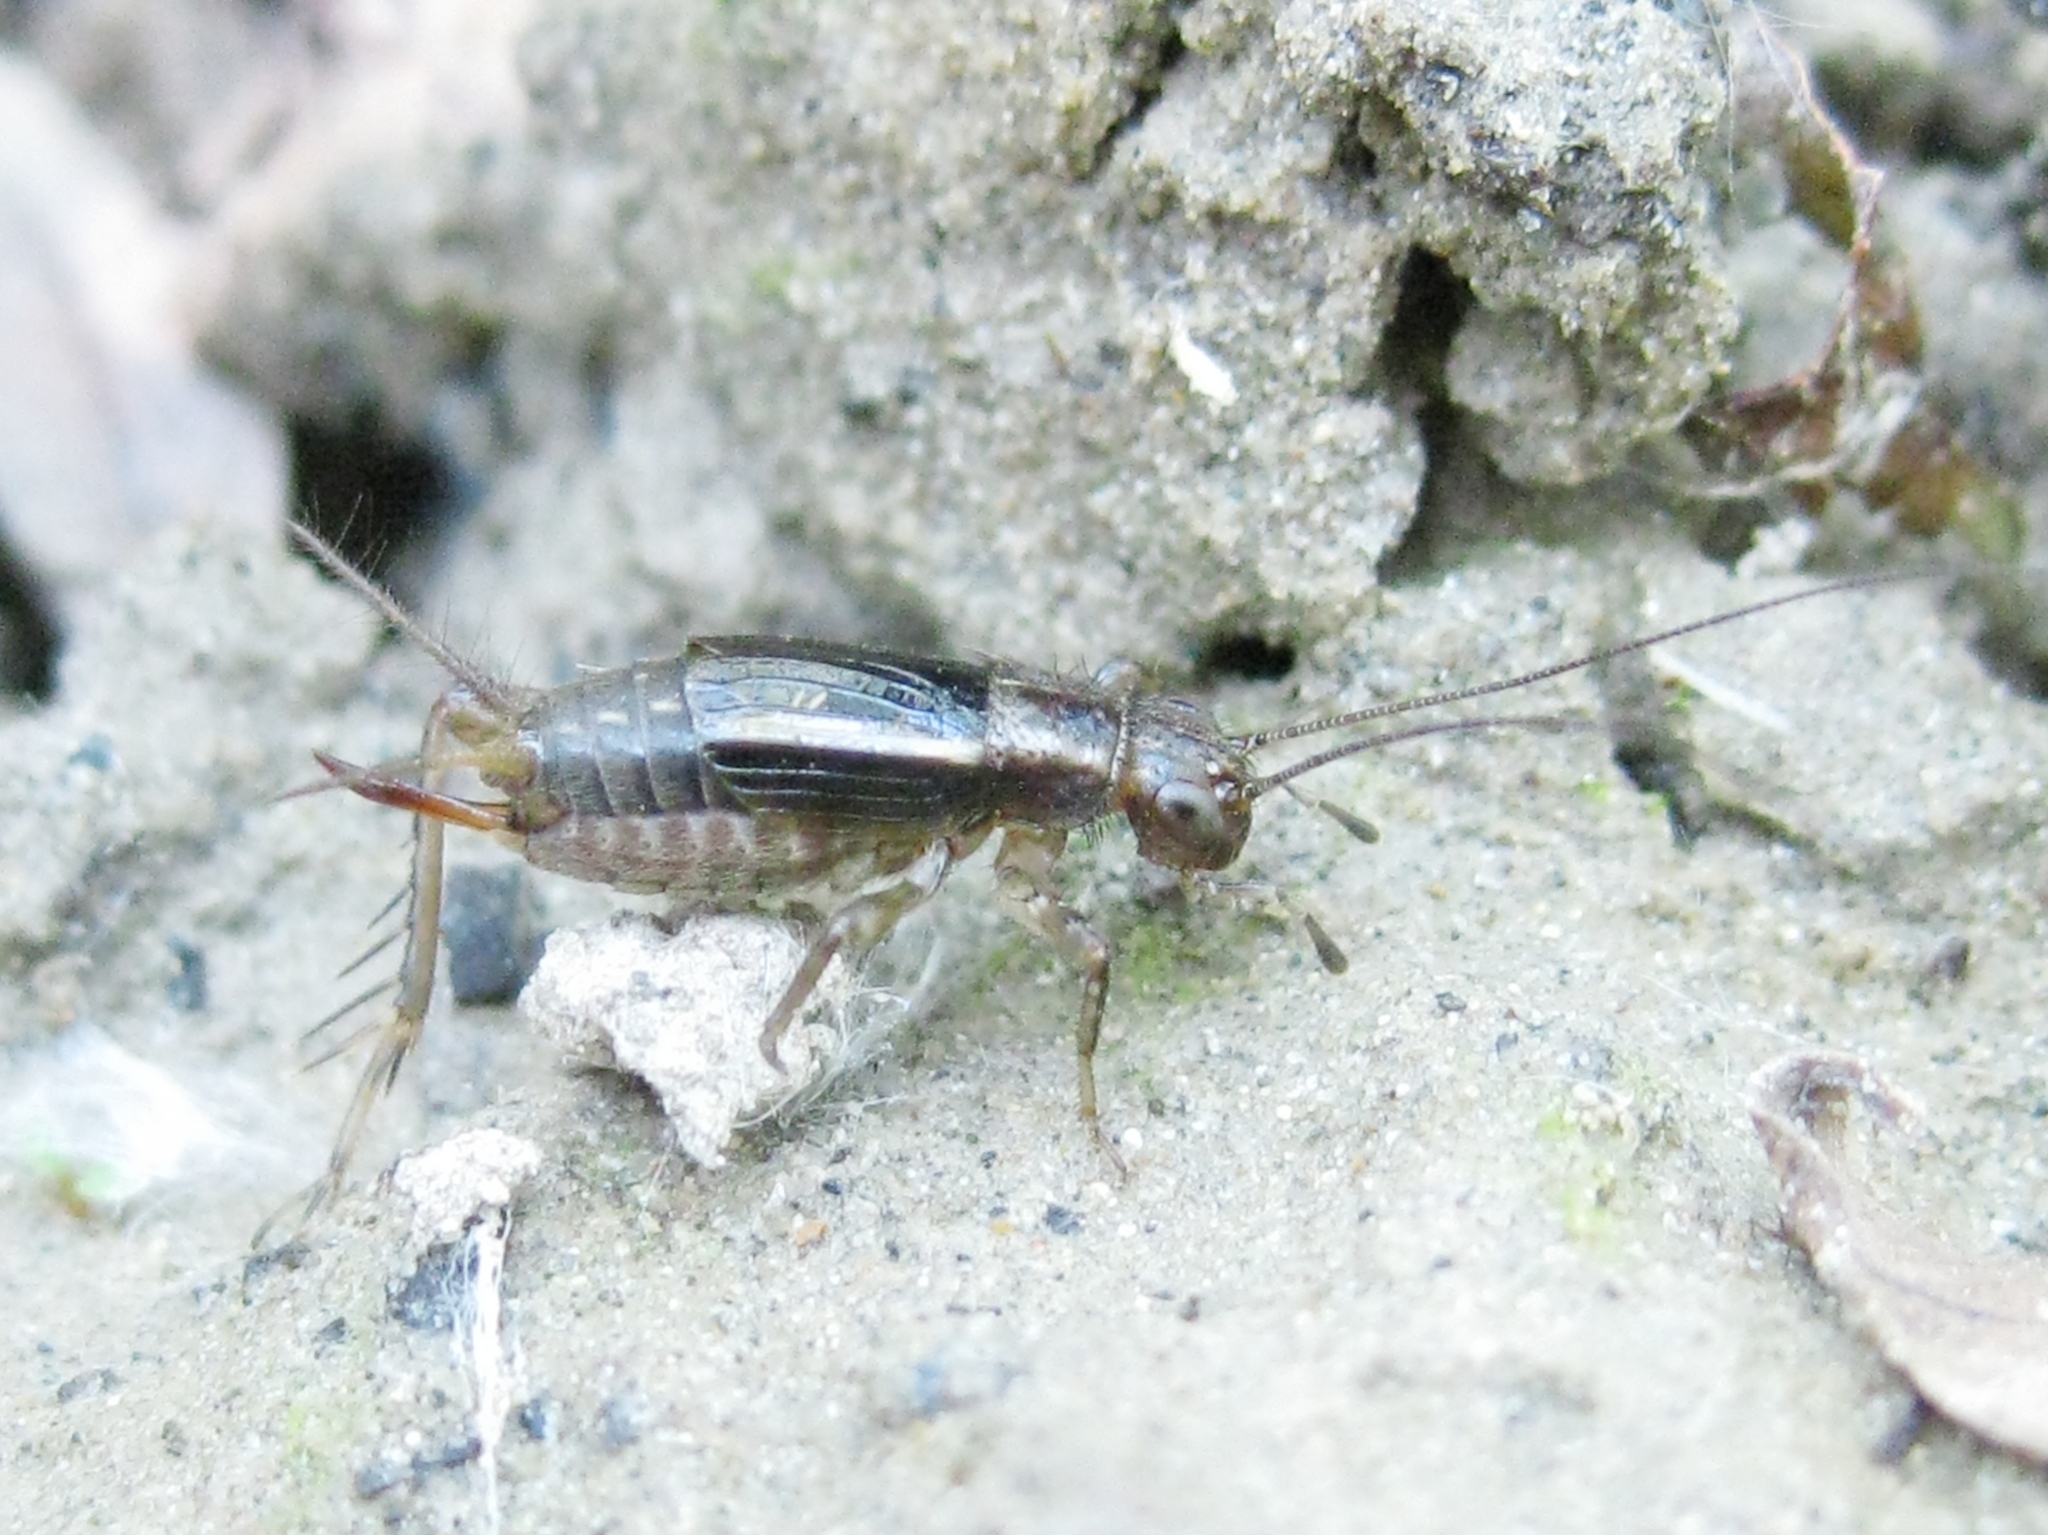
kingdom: Animalia
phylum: Arthropoda
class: Insecta
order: Orthoptera
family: Trigonidiidae
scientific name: Trigonidiidae
